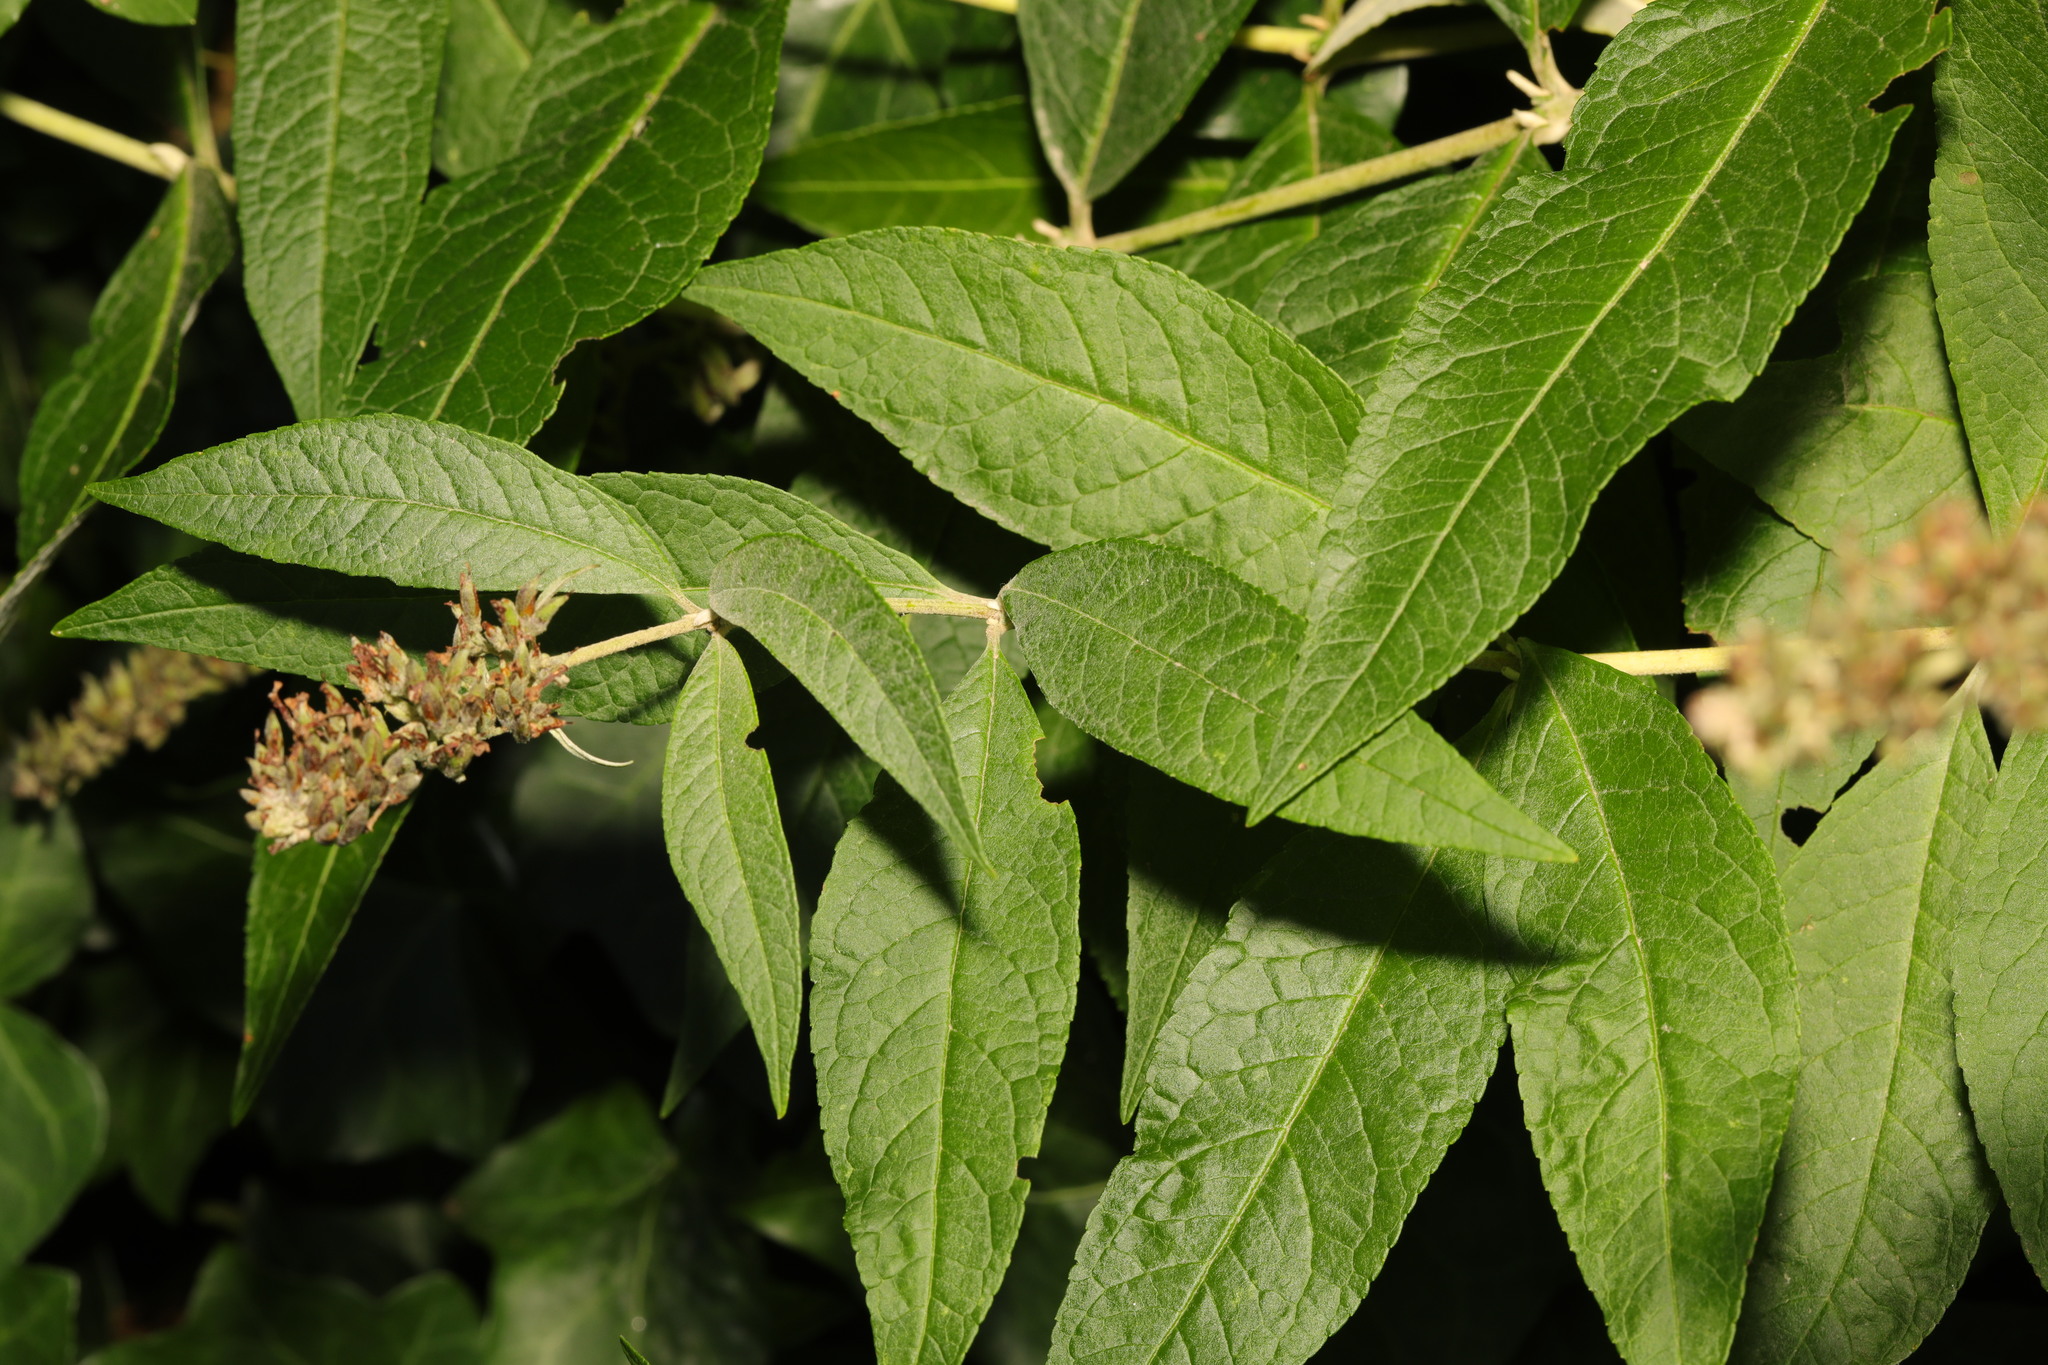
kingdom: Plantae
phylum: Tracheophyta
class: Magnoliopsida
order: Lamiales
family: Scrophulariaceae
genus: Buddleja
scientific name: Buddleja davidii
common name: Butterfly-bush
